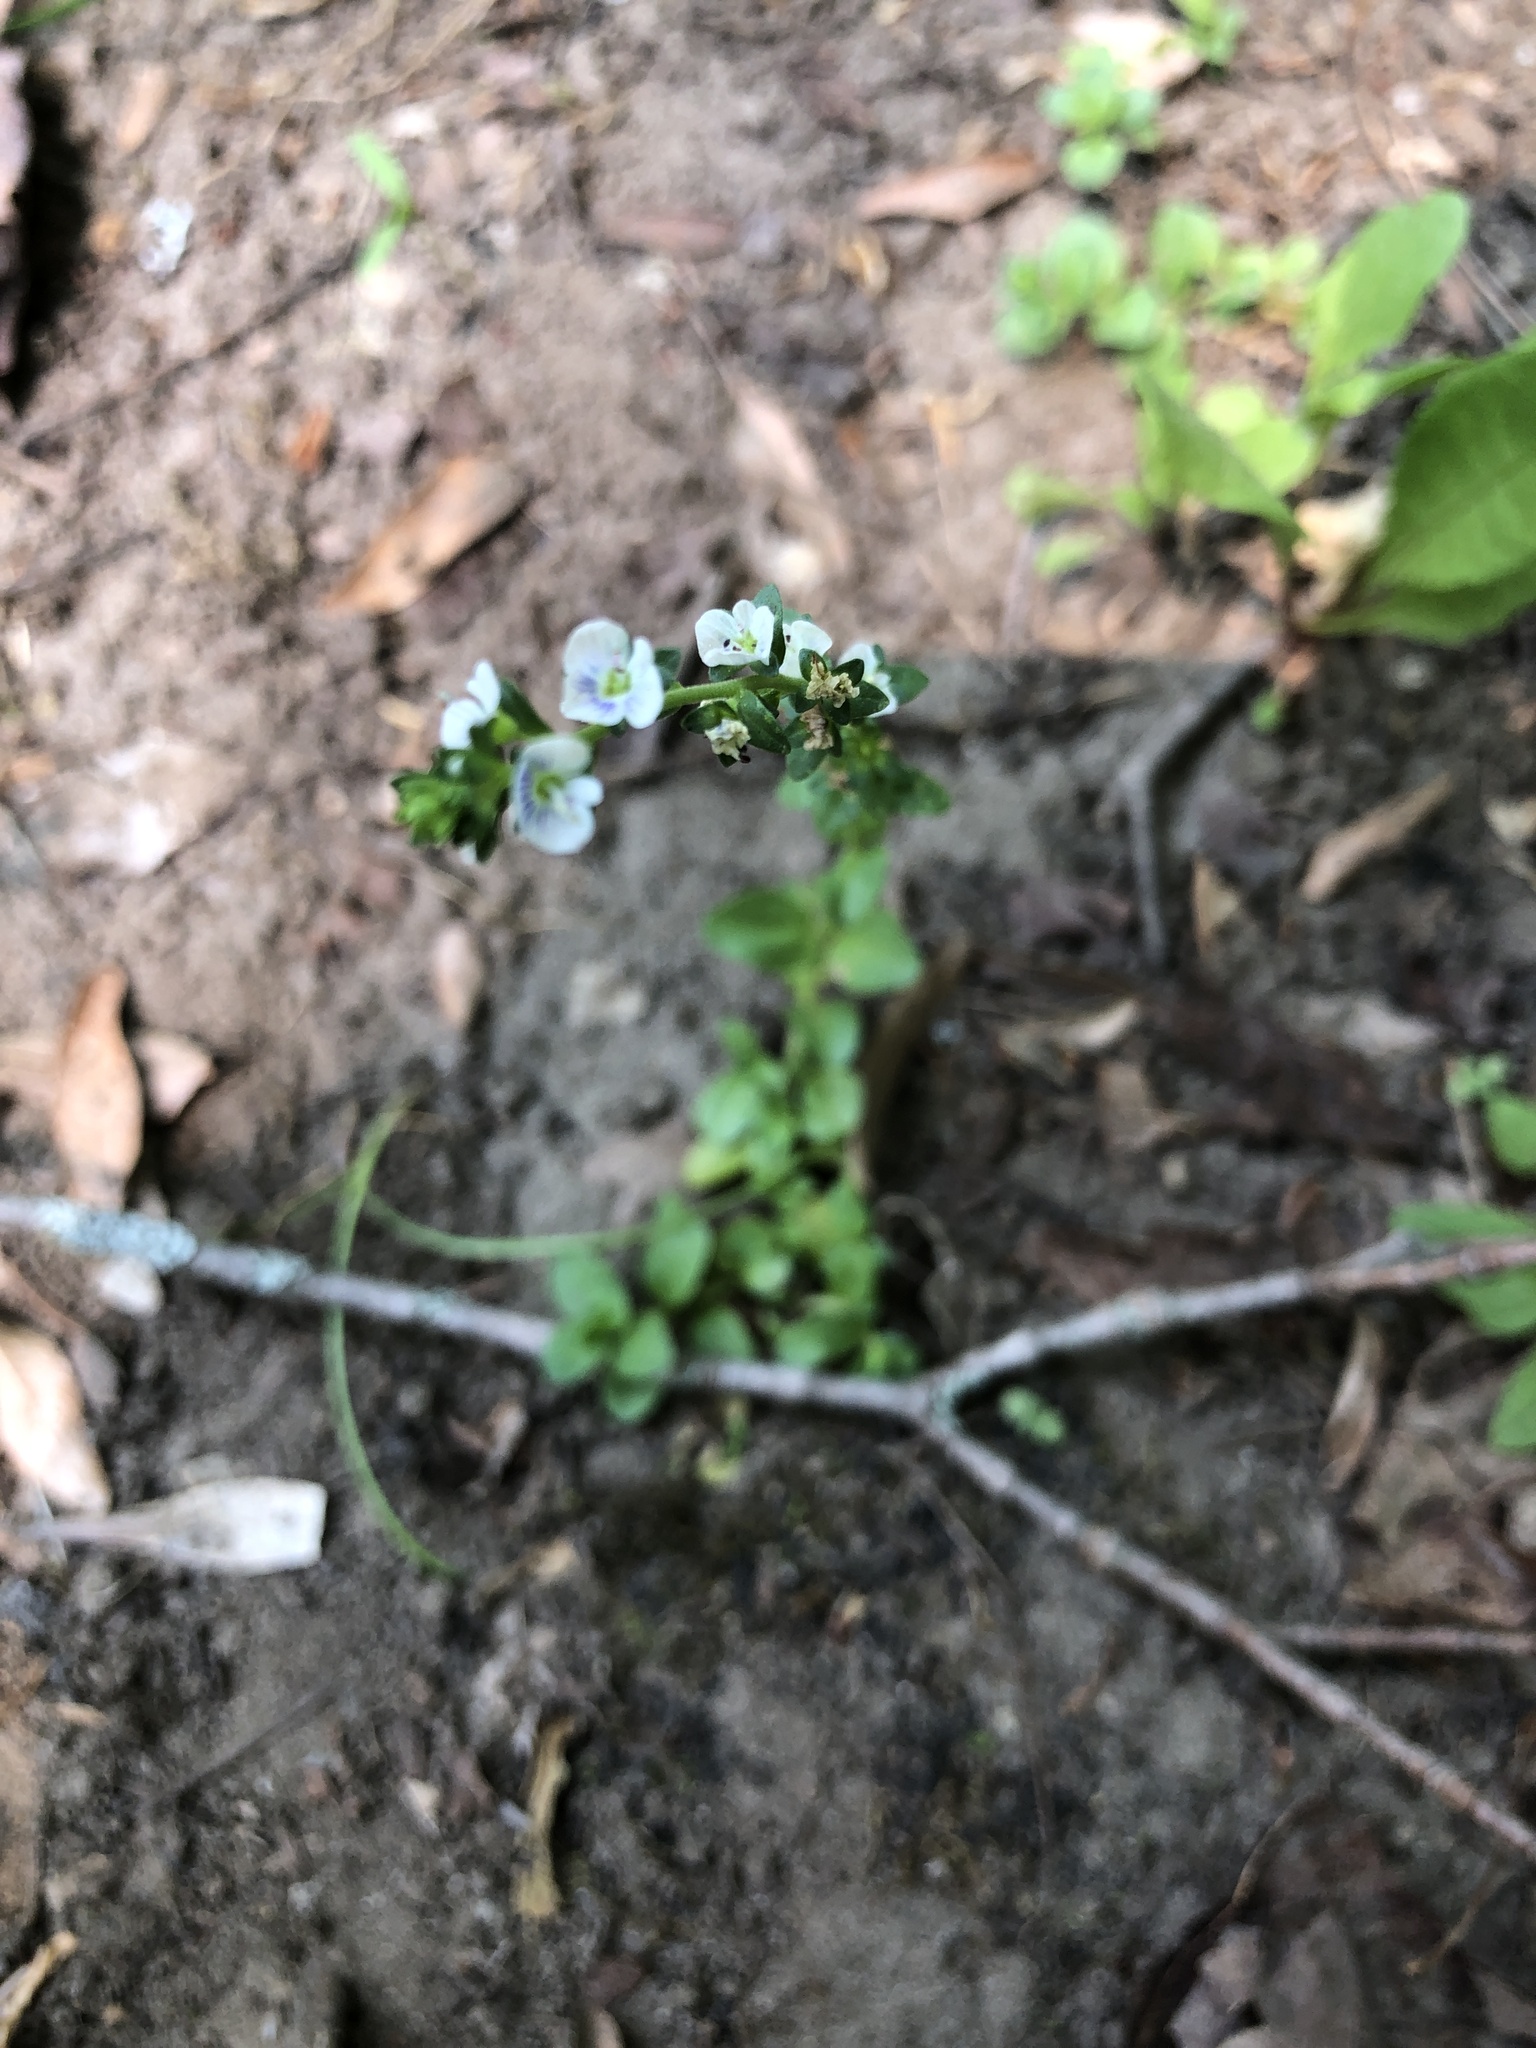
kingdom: Plantae
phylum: Tracheophyta
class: Magnoliopsida
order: Lamiales
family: Plantaginaceae
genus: Veronica
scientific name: Veronica serpyllifolia
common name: Thyme-leaved speedwell
